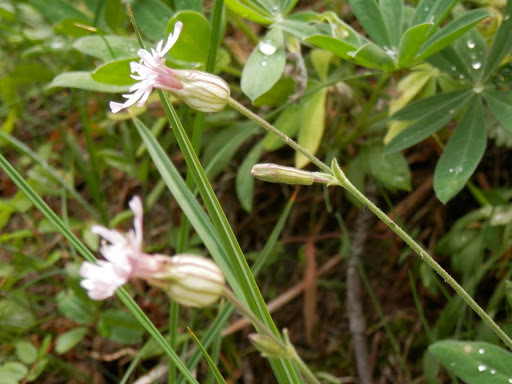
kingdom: Plantae
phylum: Tracheophyta
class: Magnoliopsida
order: Caryophyllales
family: Caryophyllaceae
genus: Silene
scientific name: Silene douglasii
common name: Douglas's catchfly
